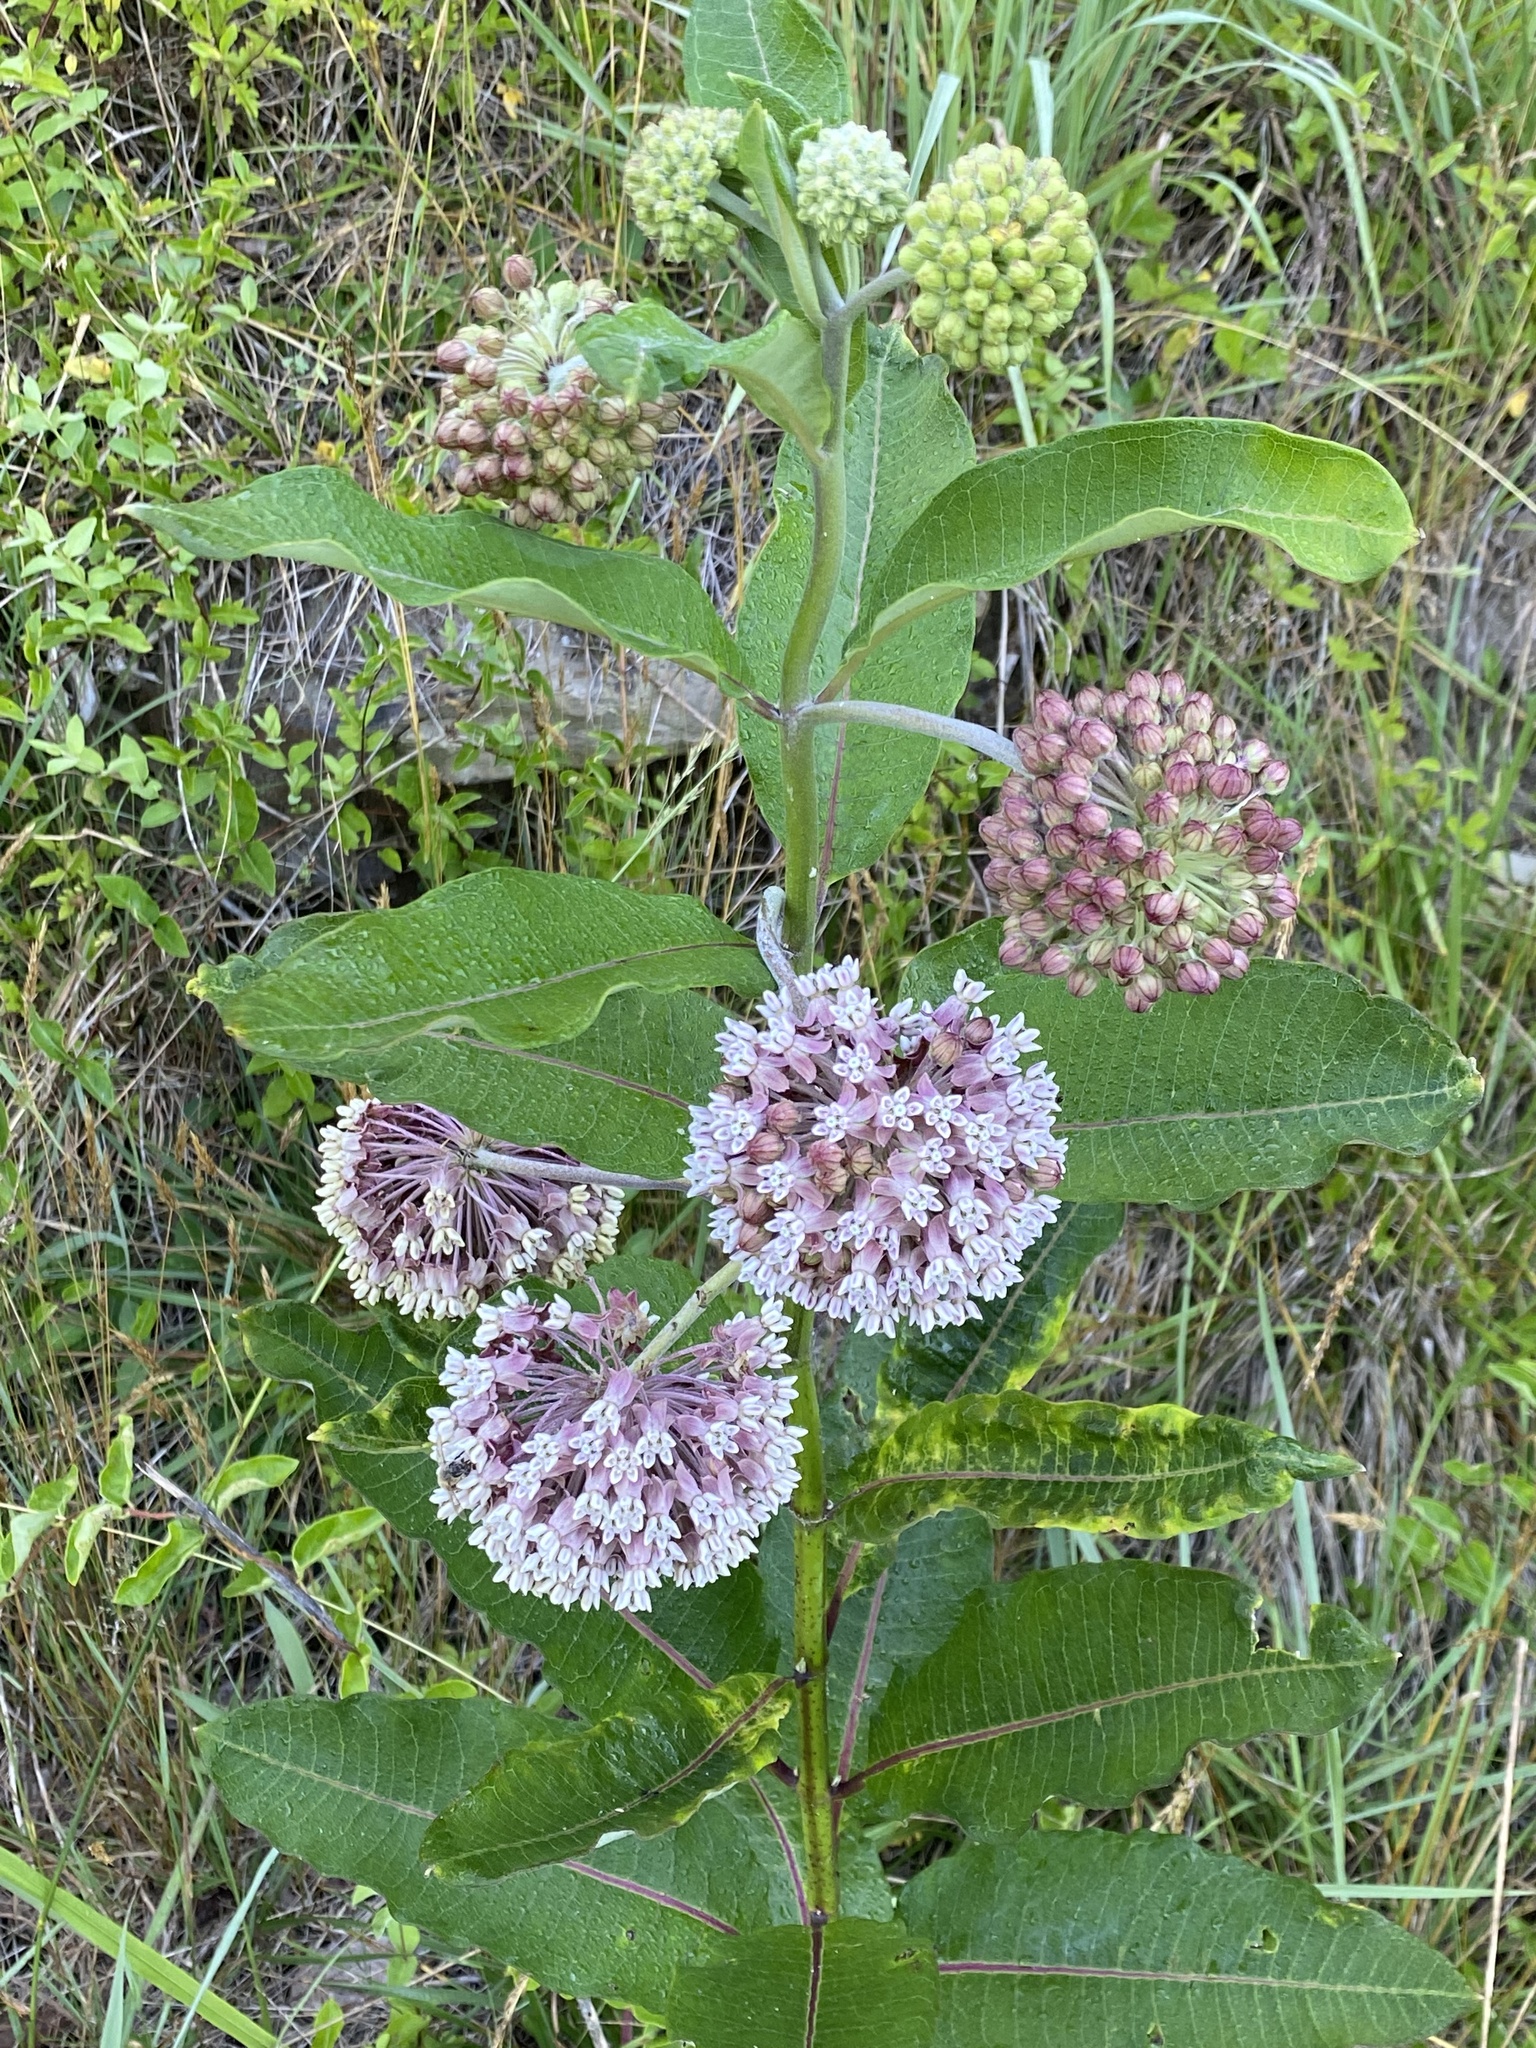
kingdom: Plantae
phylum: Tracheophyta
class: Magnoliopsida
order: Gentianales
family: Apocynaceae
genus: Asclepias
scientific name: Asclepias syriaca
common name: Common milkweed
